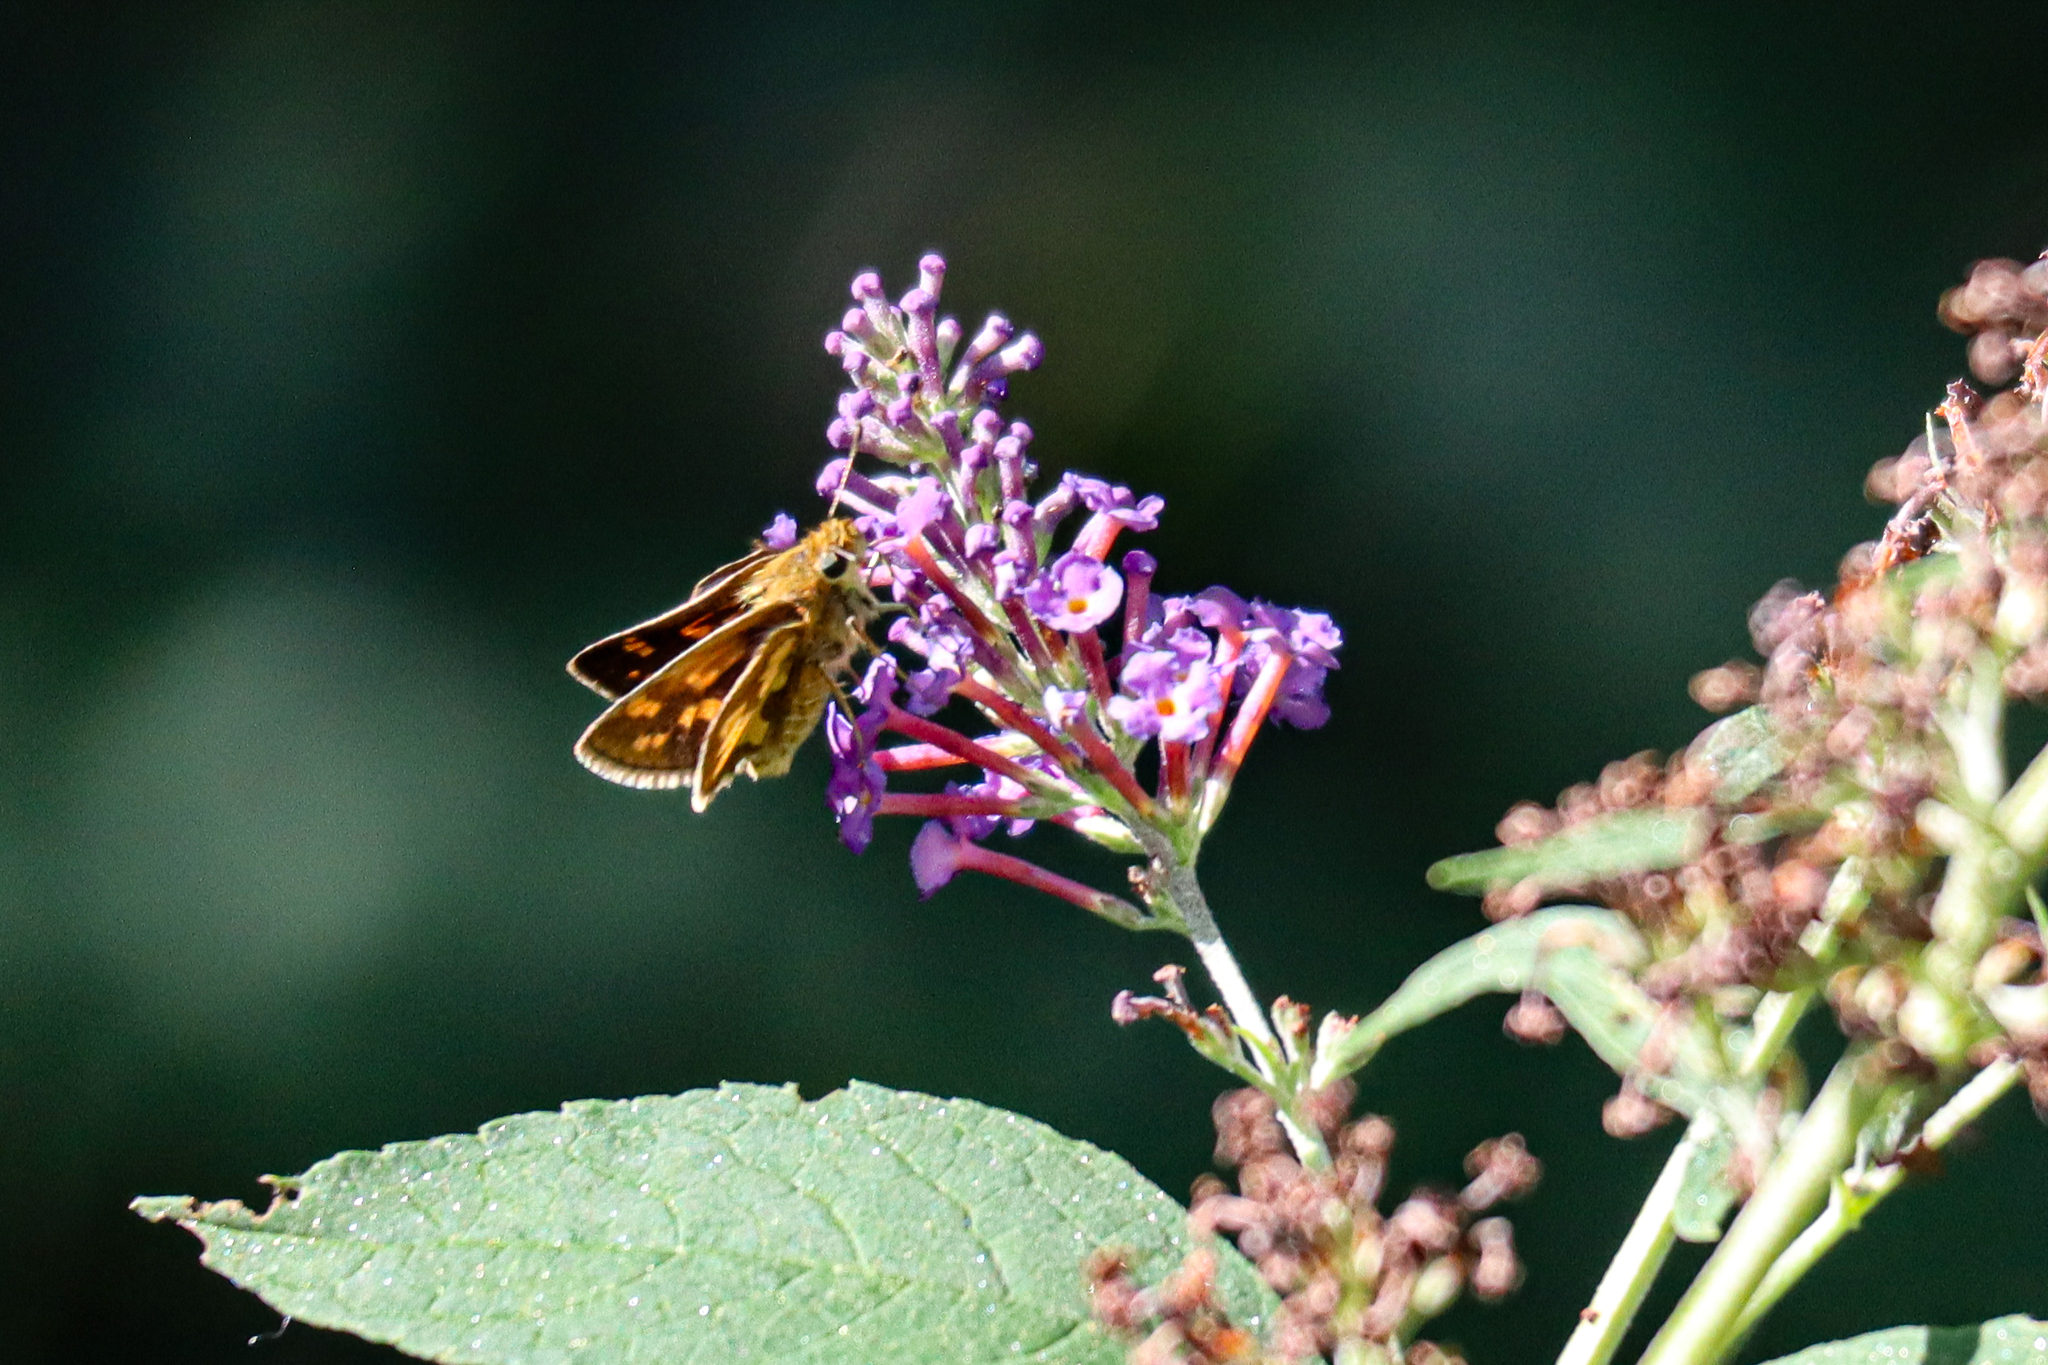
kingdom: Animalia
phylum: Arthropoda
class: Insecta
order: Lepidoptera
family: Hesperiidae
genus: Polites
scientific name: Polites coras
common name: Peck's skipper
